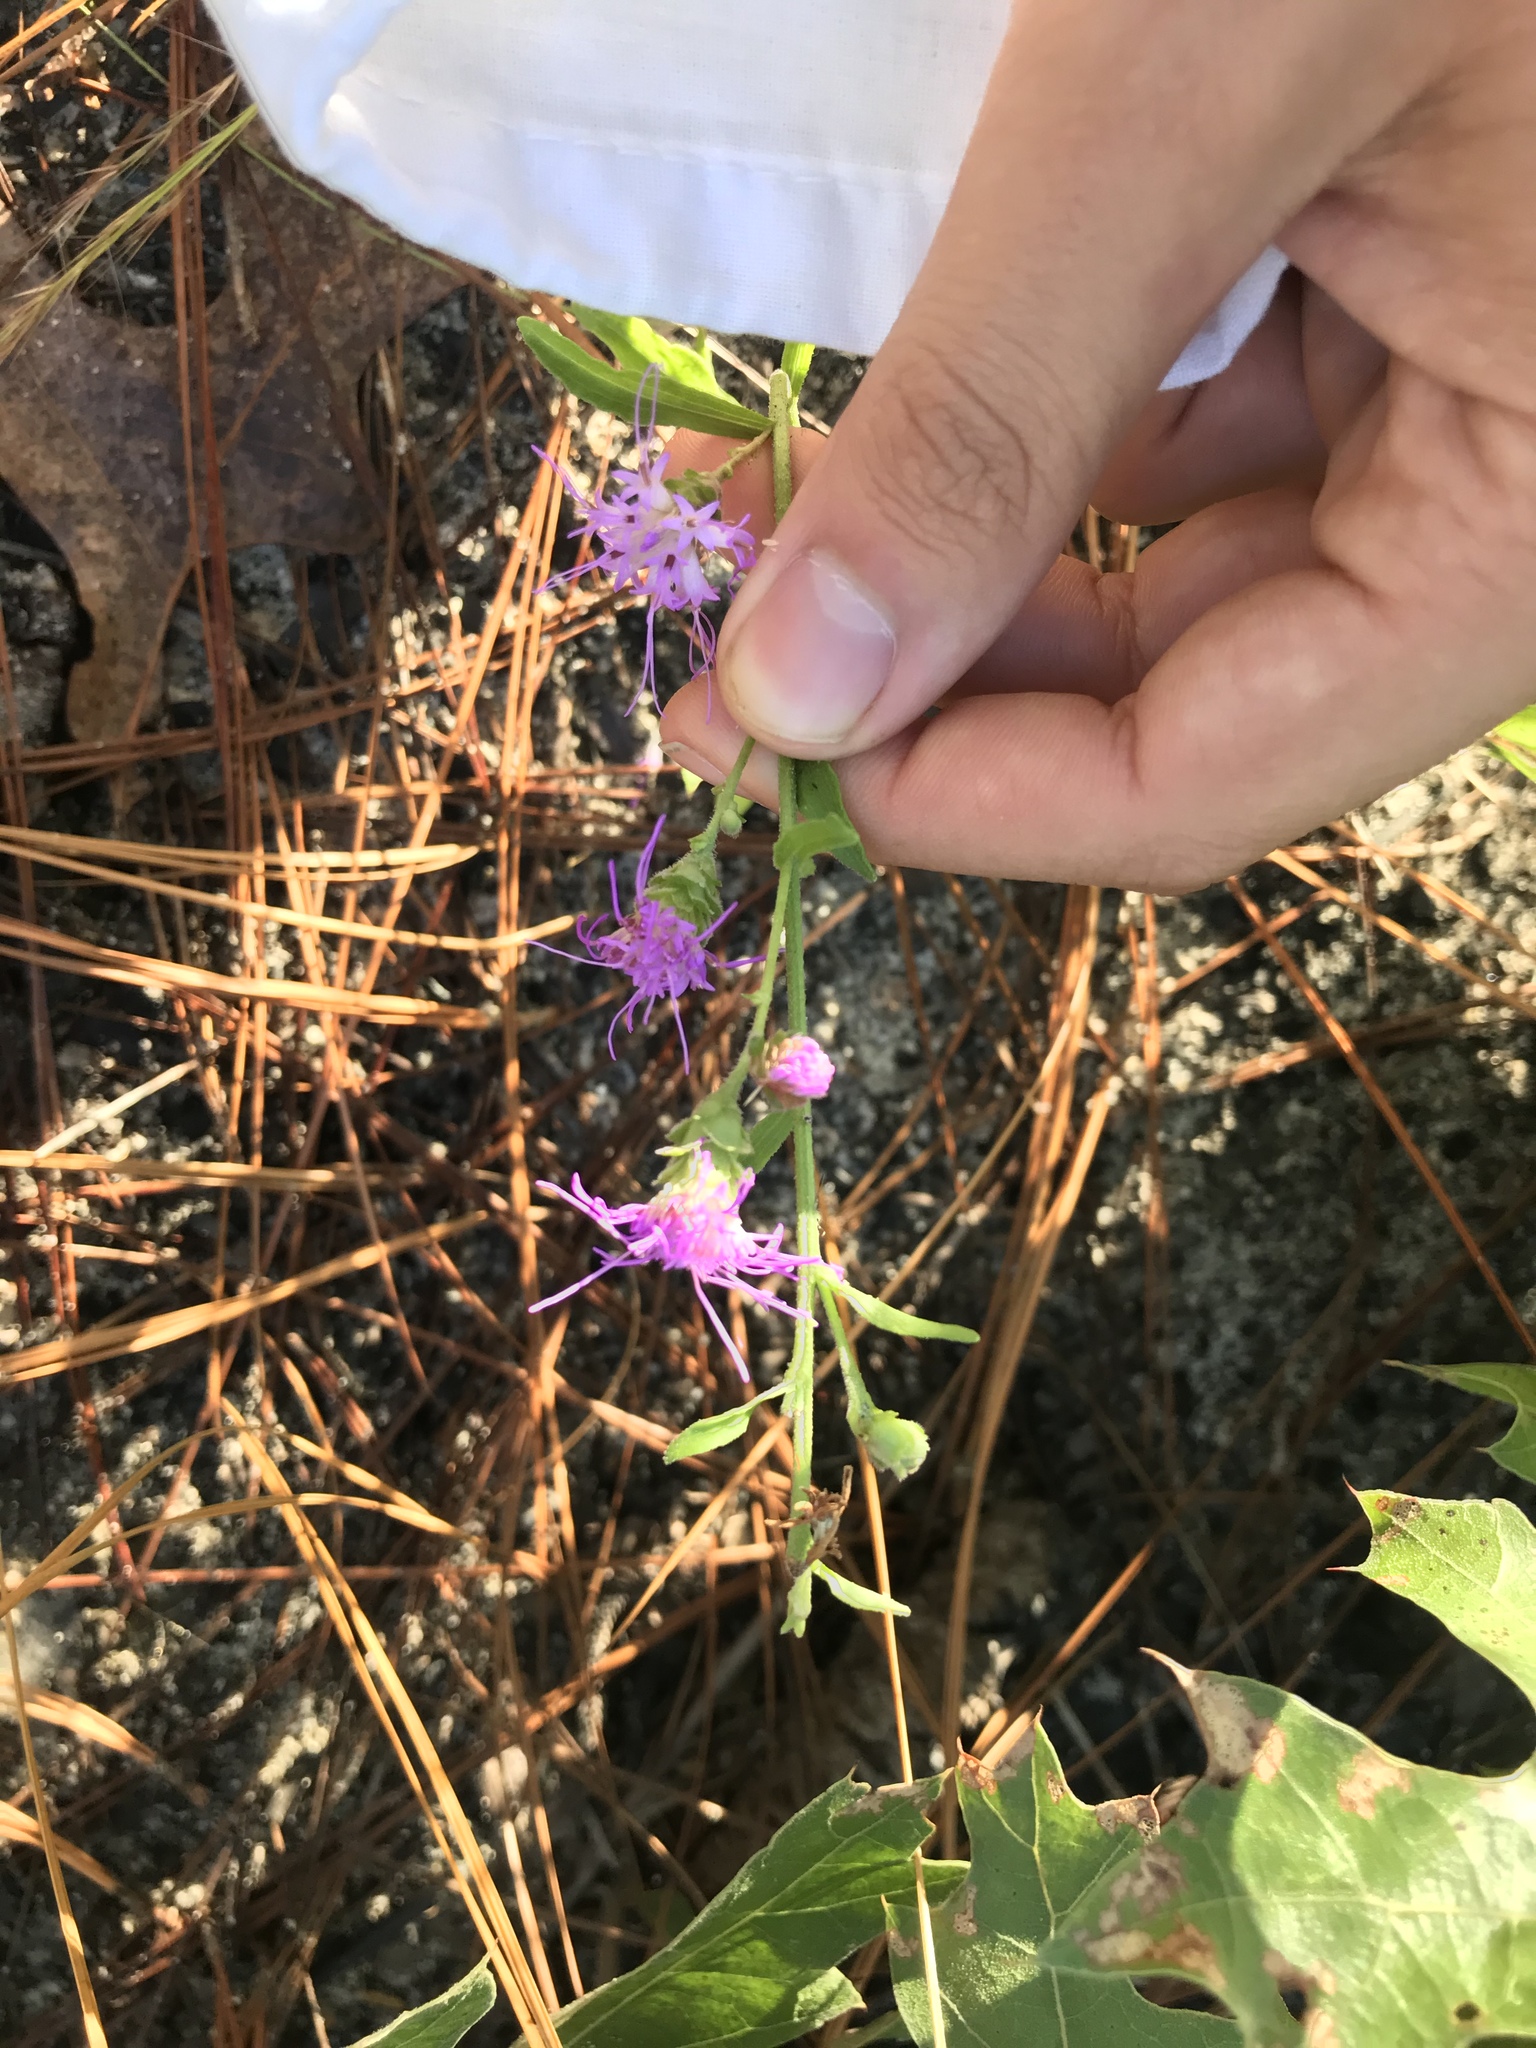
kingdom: Plantae
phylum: Tracheophyta
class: Magnoliopsida
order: Asterales
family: Asteraceae
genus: Carphephorus
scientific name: Carphephorus bellidifolius
